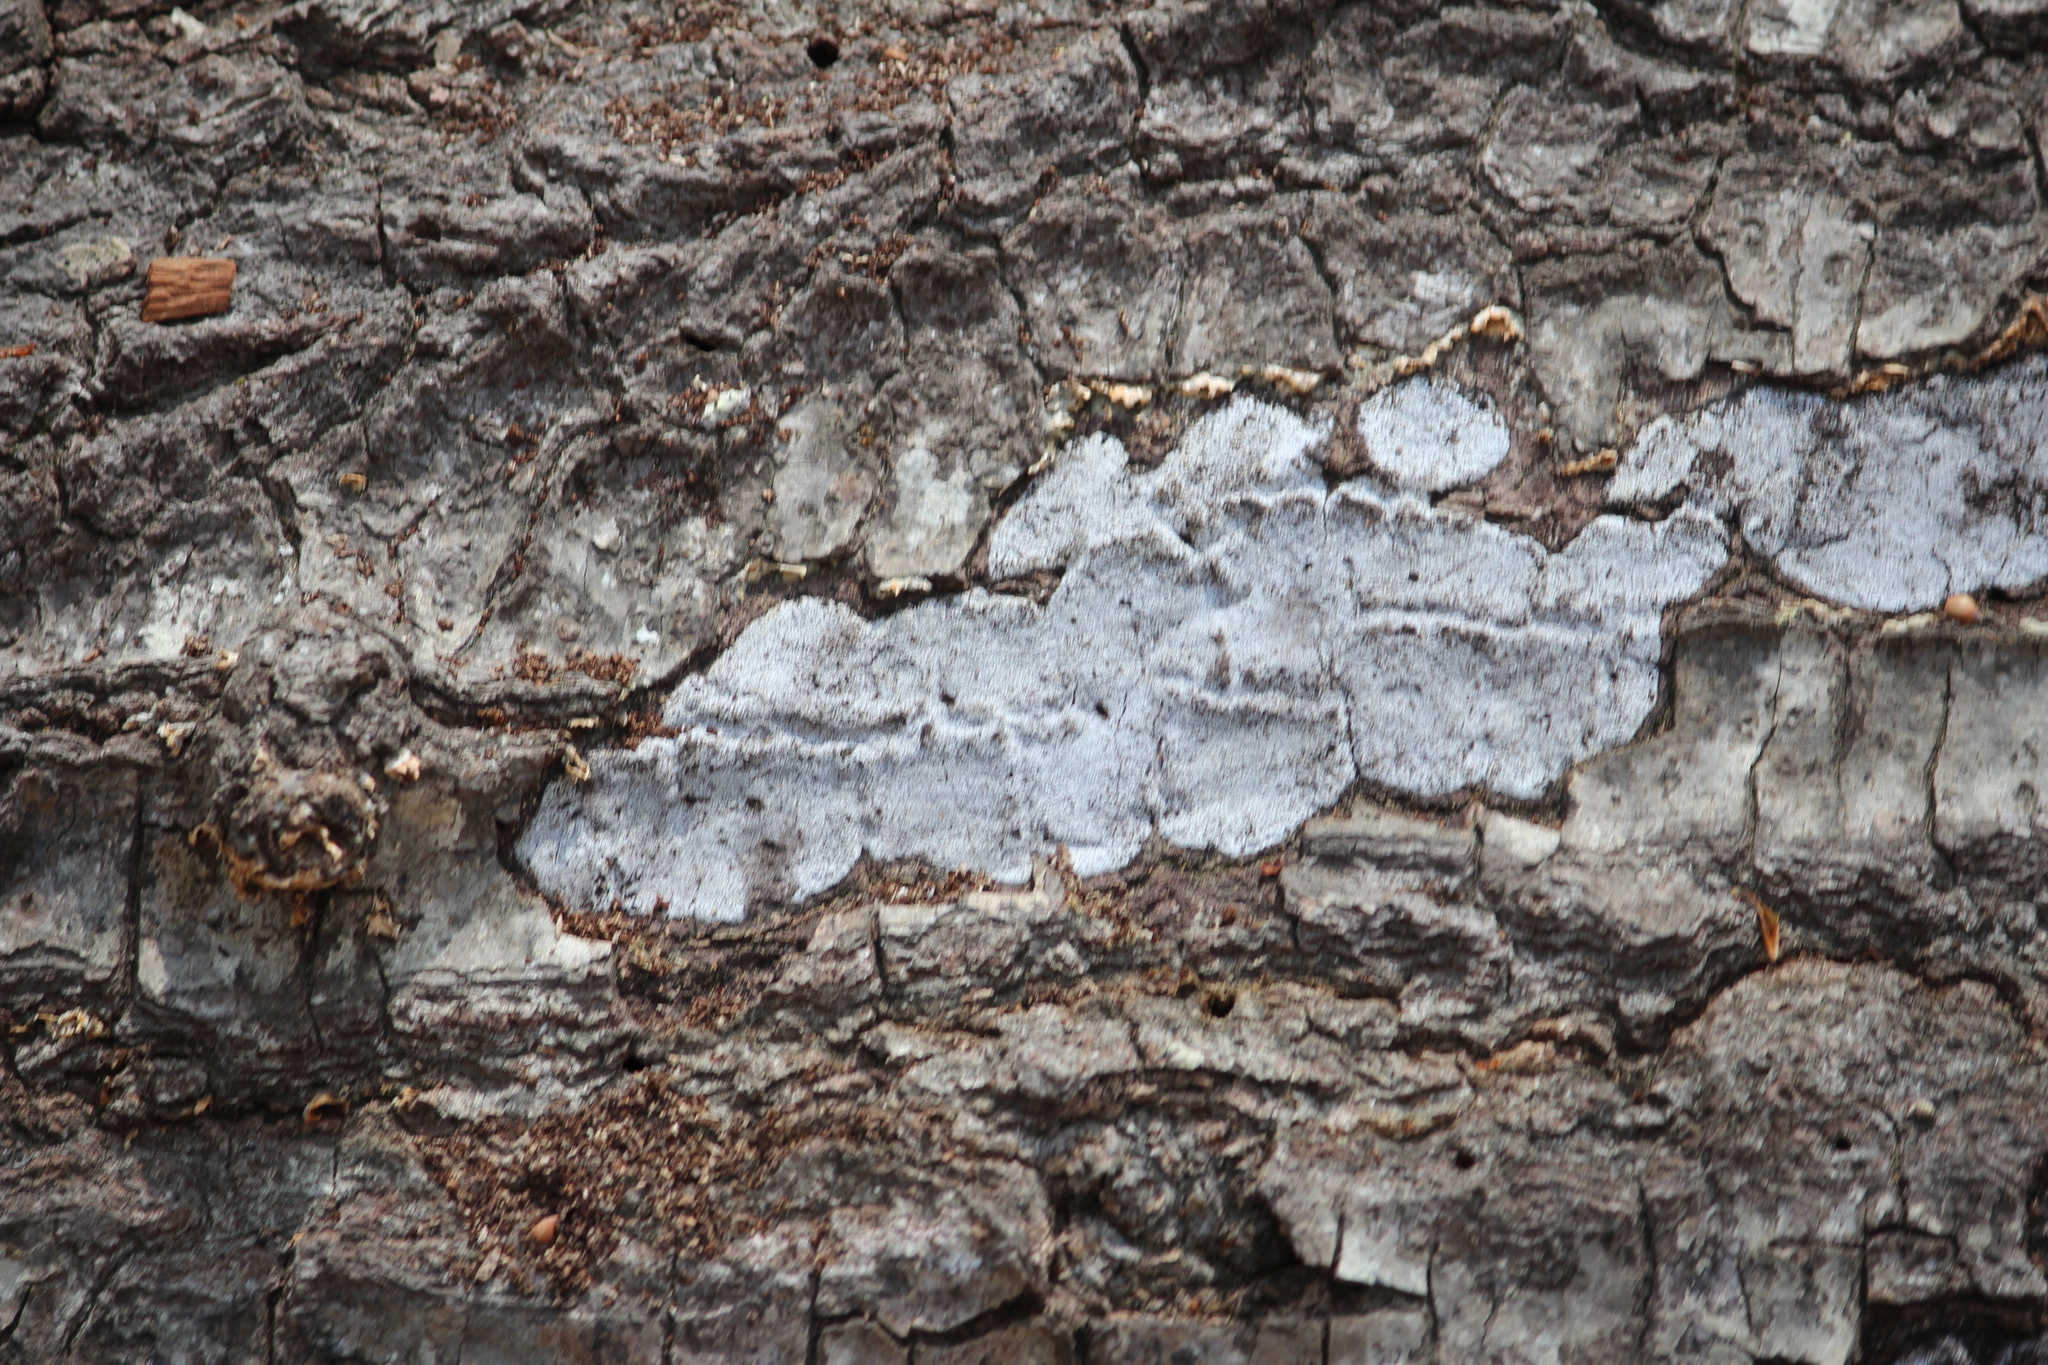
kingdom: Fungi
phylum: Ascomycota
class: Sordariomycetes
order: Xylariales
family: Graphostromataceae
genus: Biscogniauxia
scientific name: Biscogniauxia atropunctata
